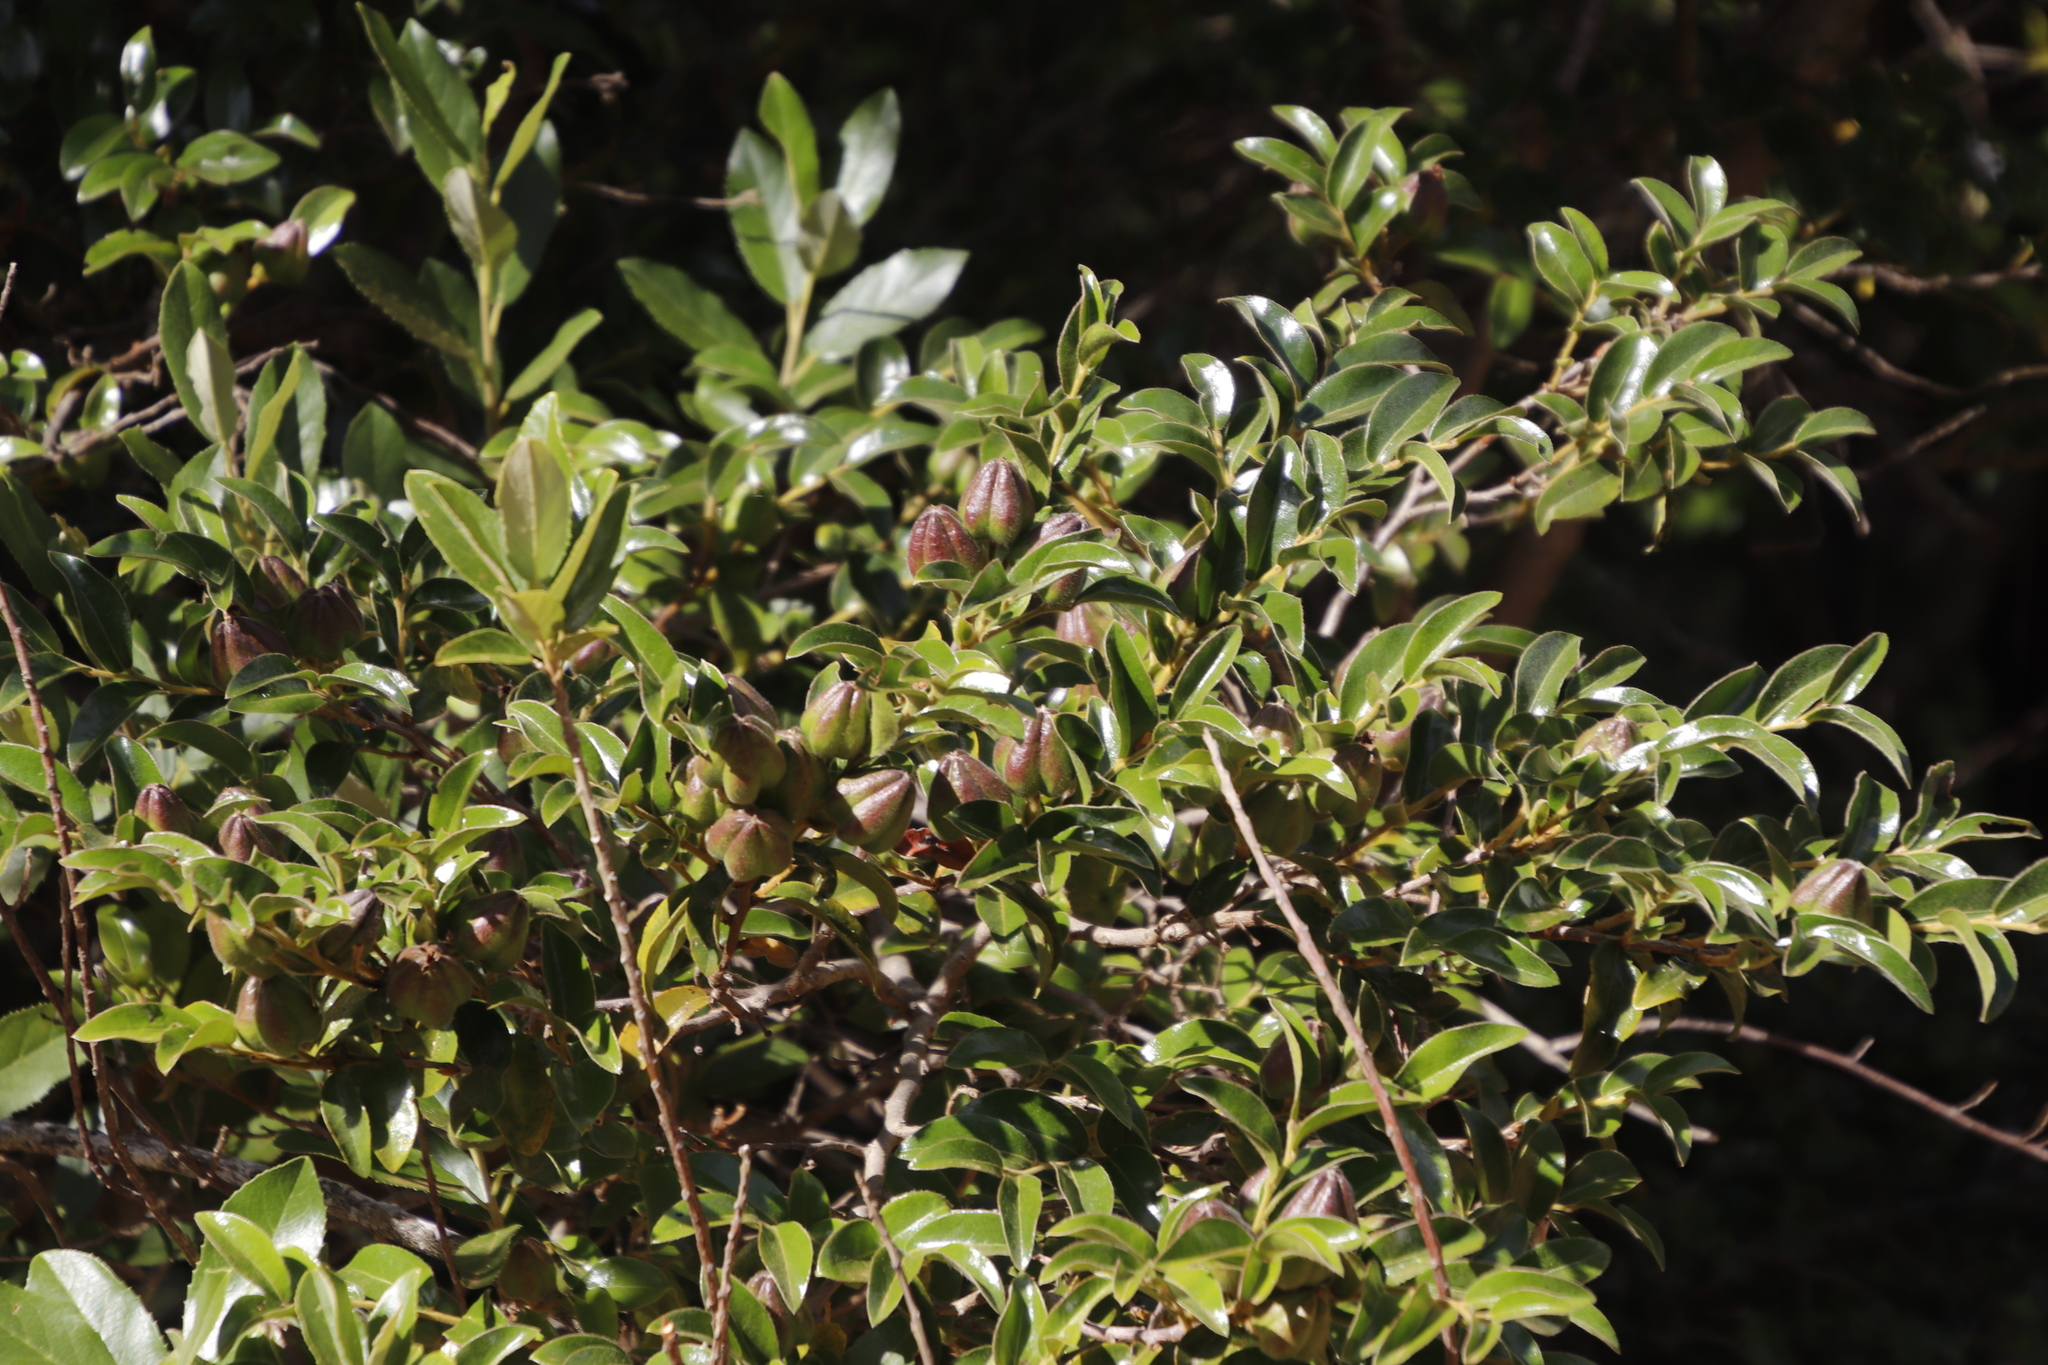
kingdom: Plantae
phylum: Tracheophyta
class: Magnoliopsida
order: Ericales
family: Ebenaceae
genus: Diospyros
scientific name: Diospyros whyteana
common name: Bladder-nut
